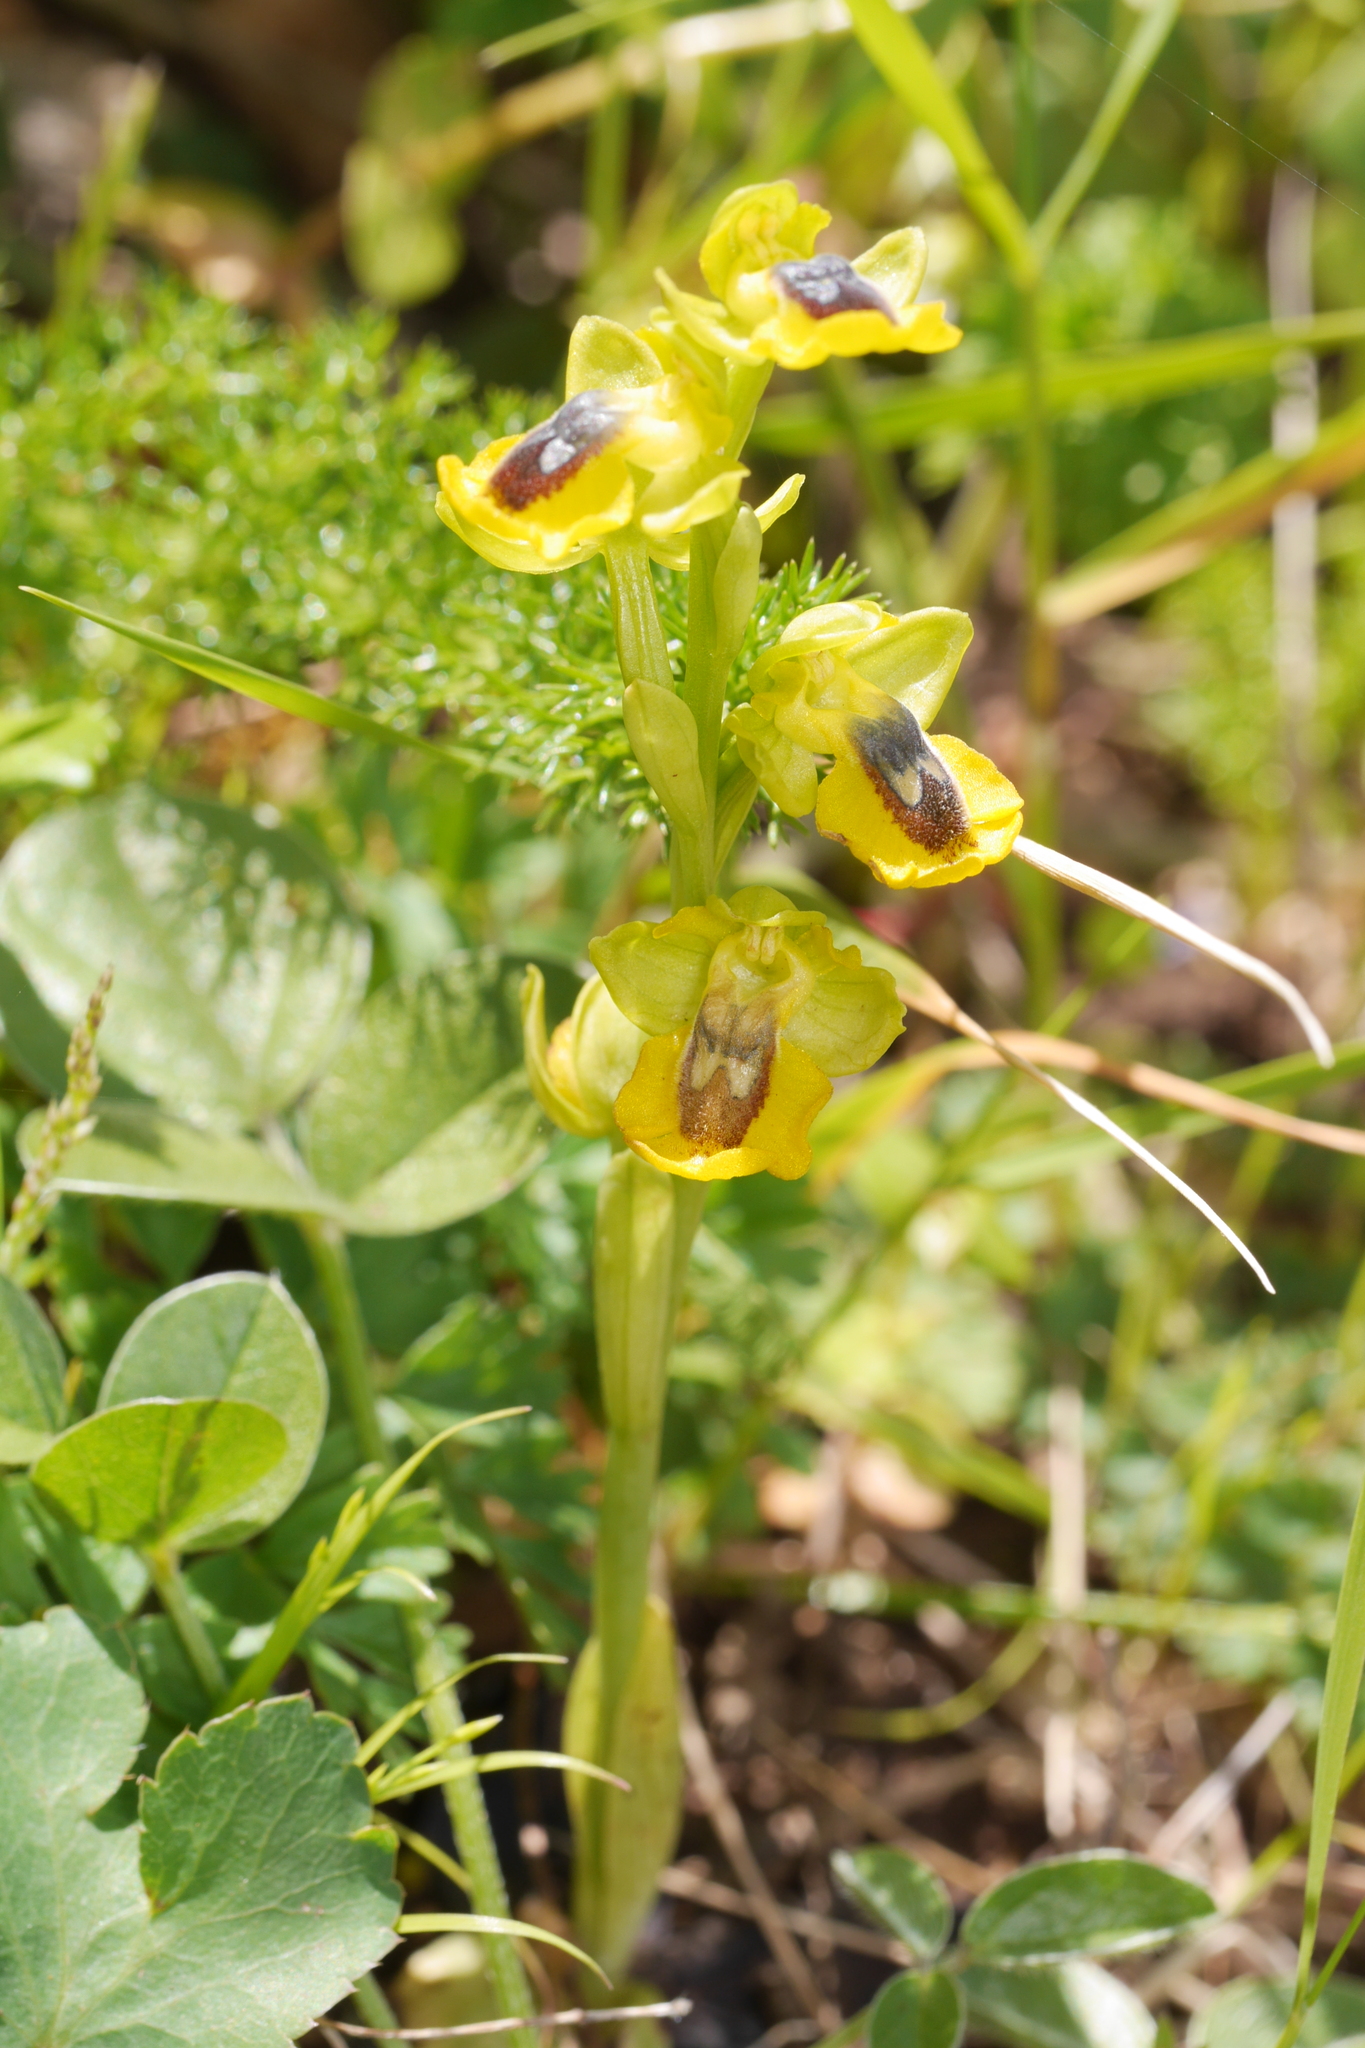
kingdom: Plantae
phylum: Tracheophyta
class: Liliopsida
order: Asparagales
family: Orchidaceae
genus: Ophrys
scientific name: Ophrys lutea
